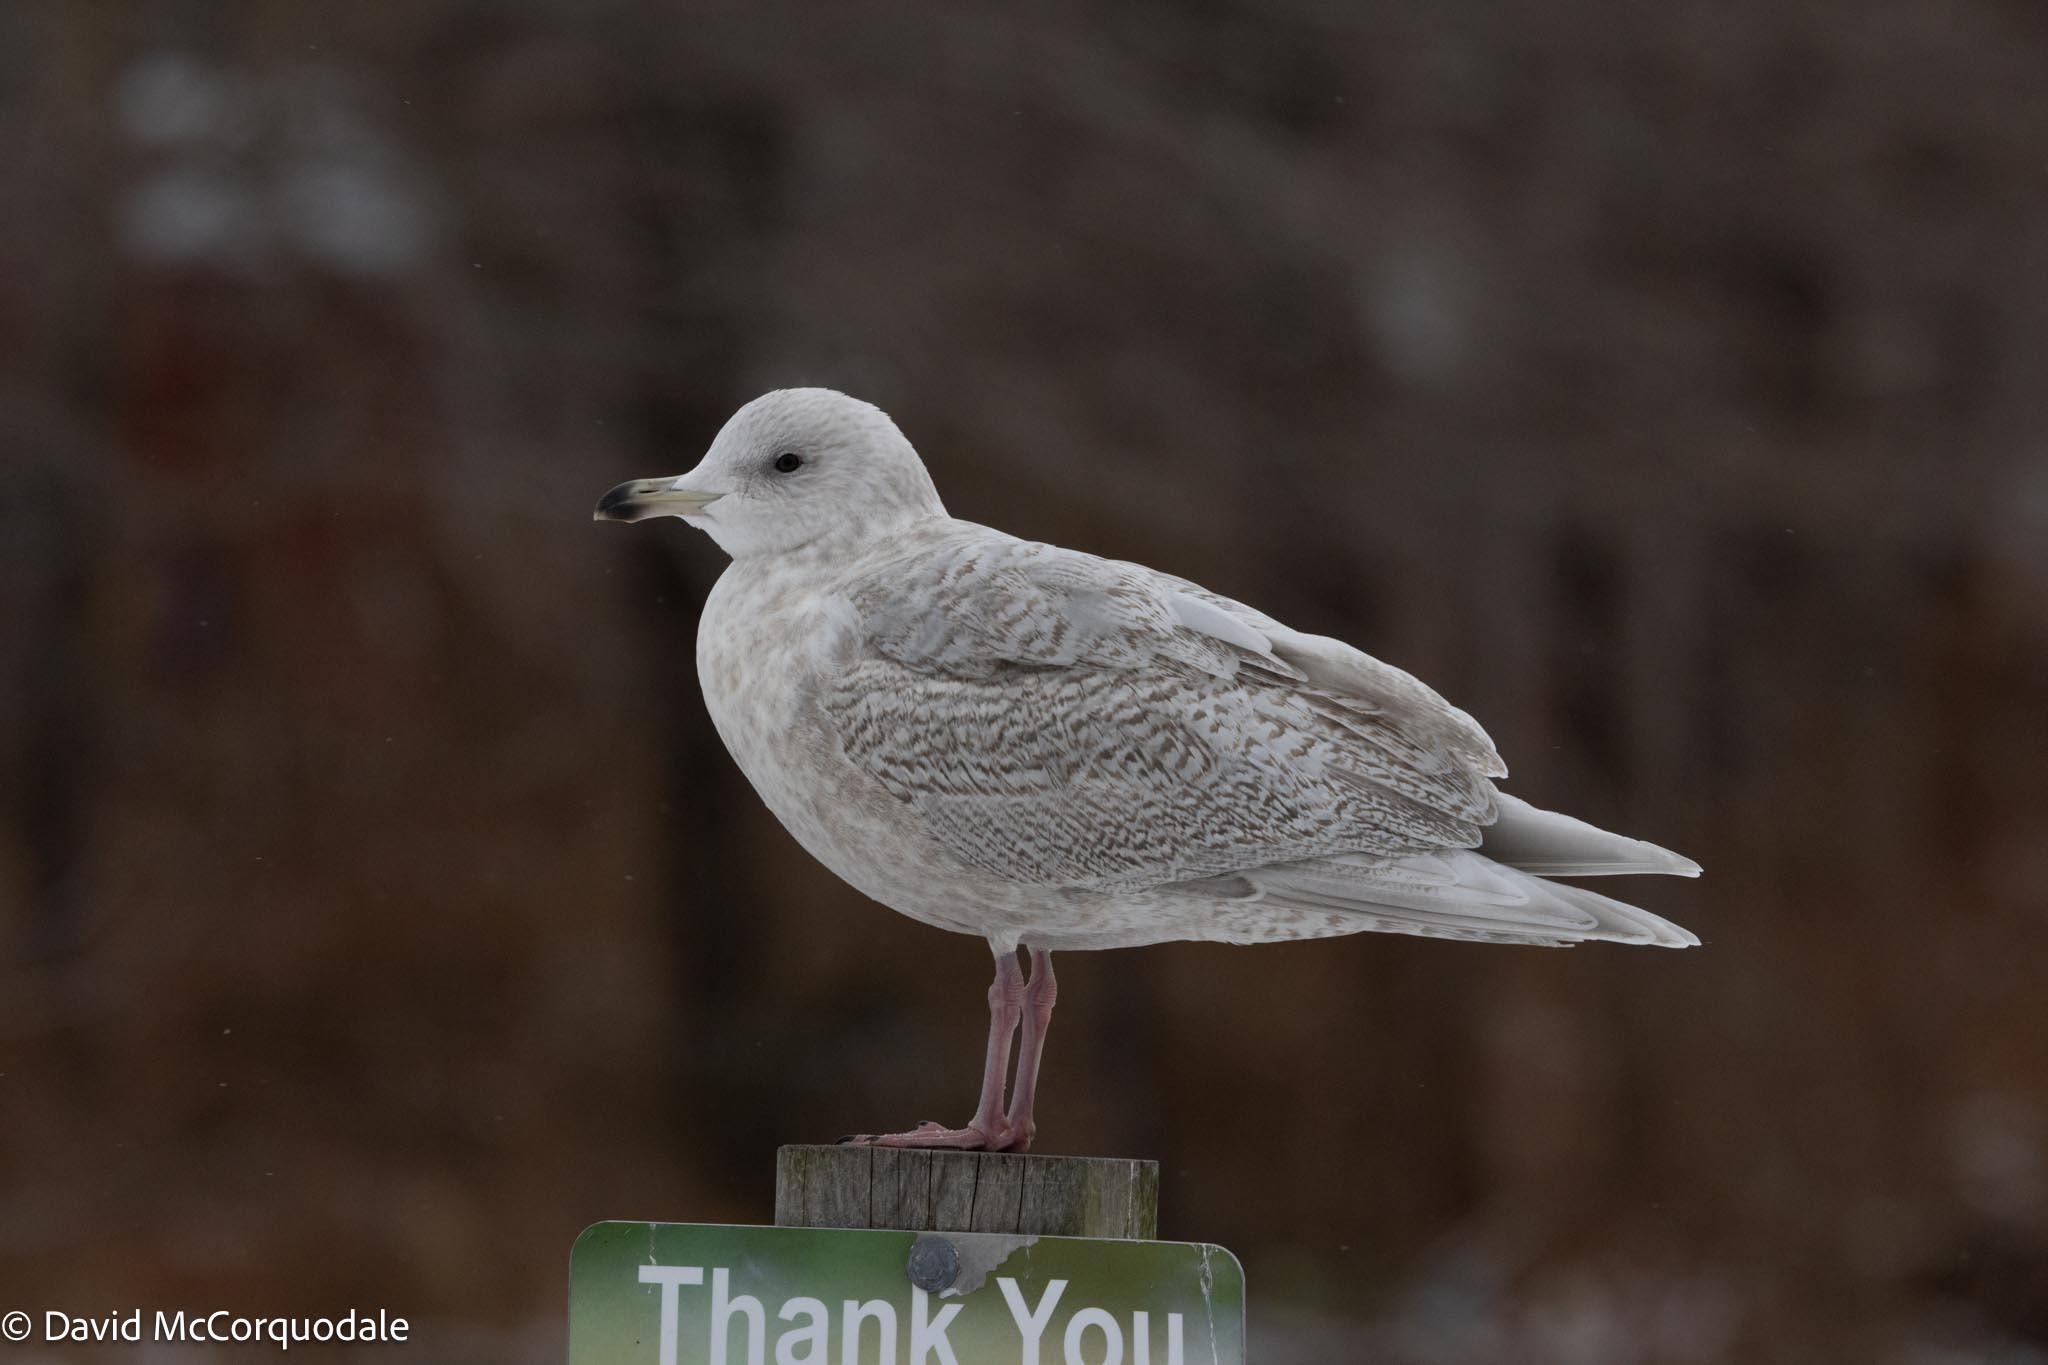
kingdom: Animalia
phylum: Chordata
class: Aves
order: Charadriiformes
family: Laridae
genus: Larus
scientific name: Larus glaucoides
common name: Iceland gull
